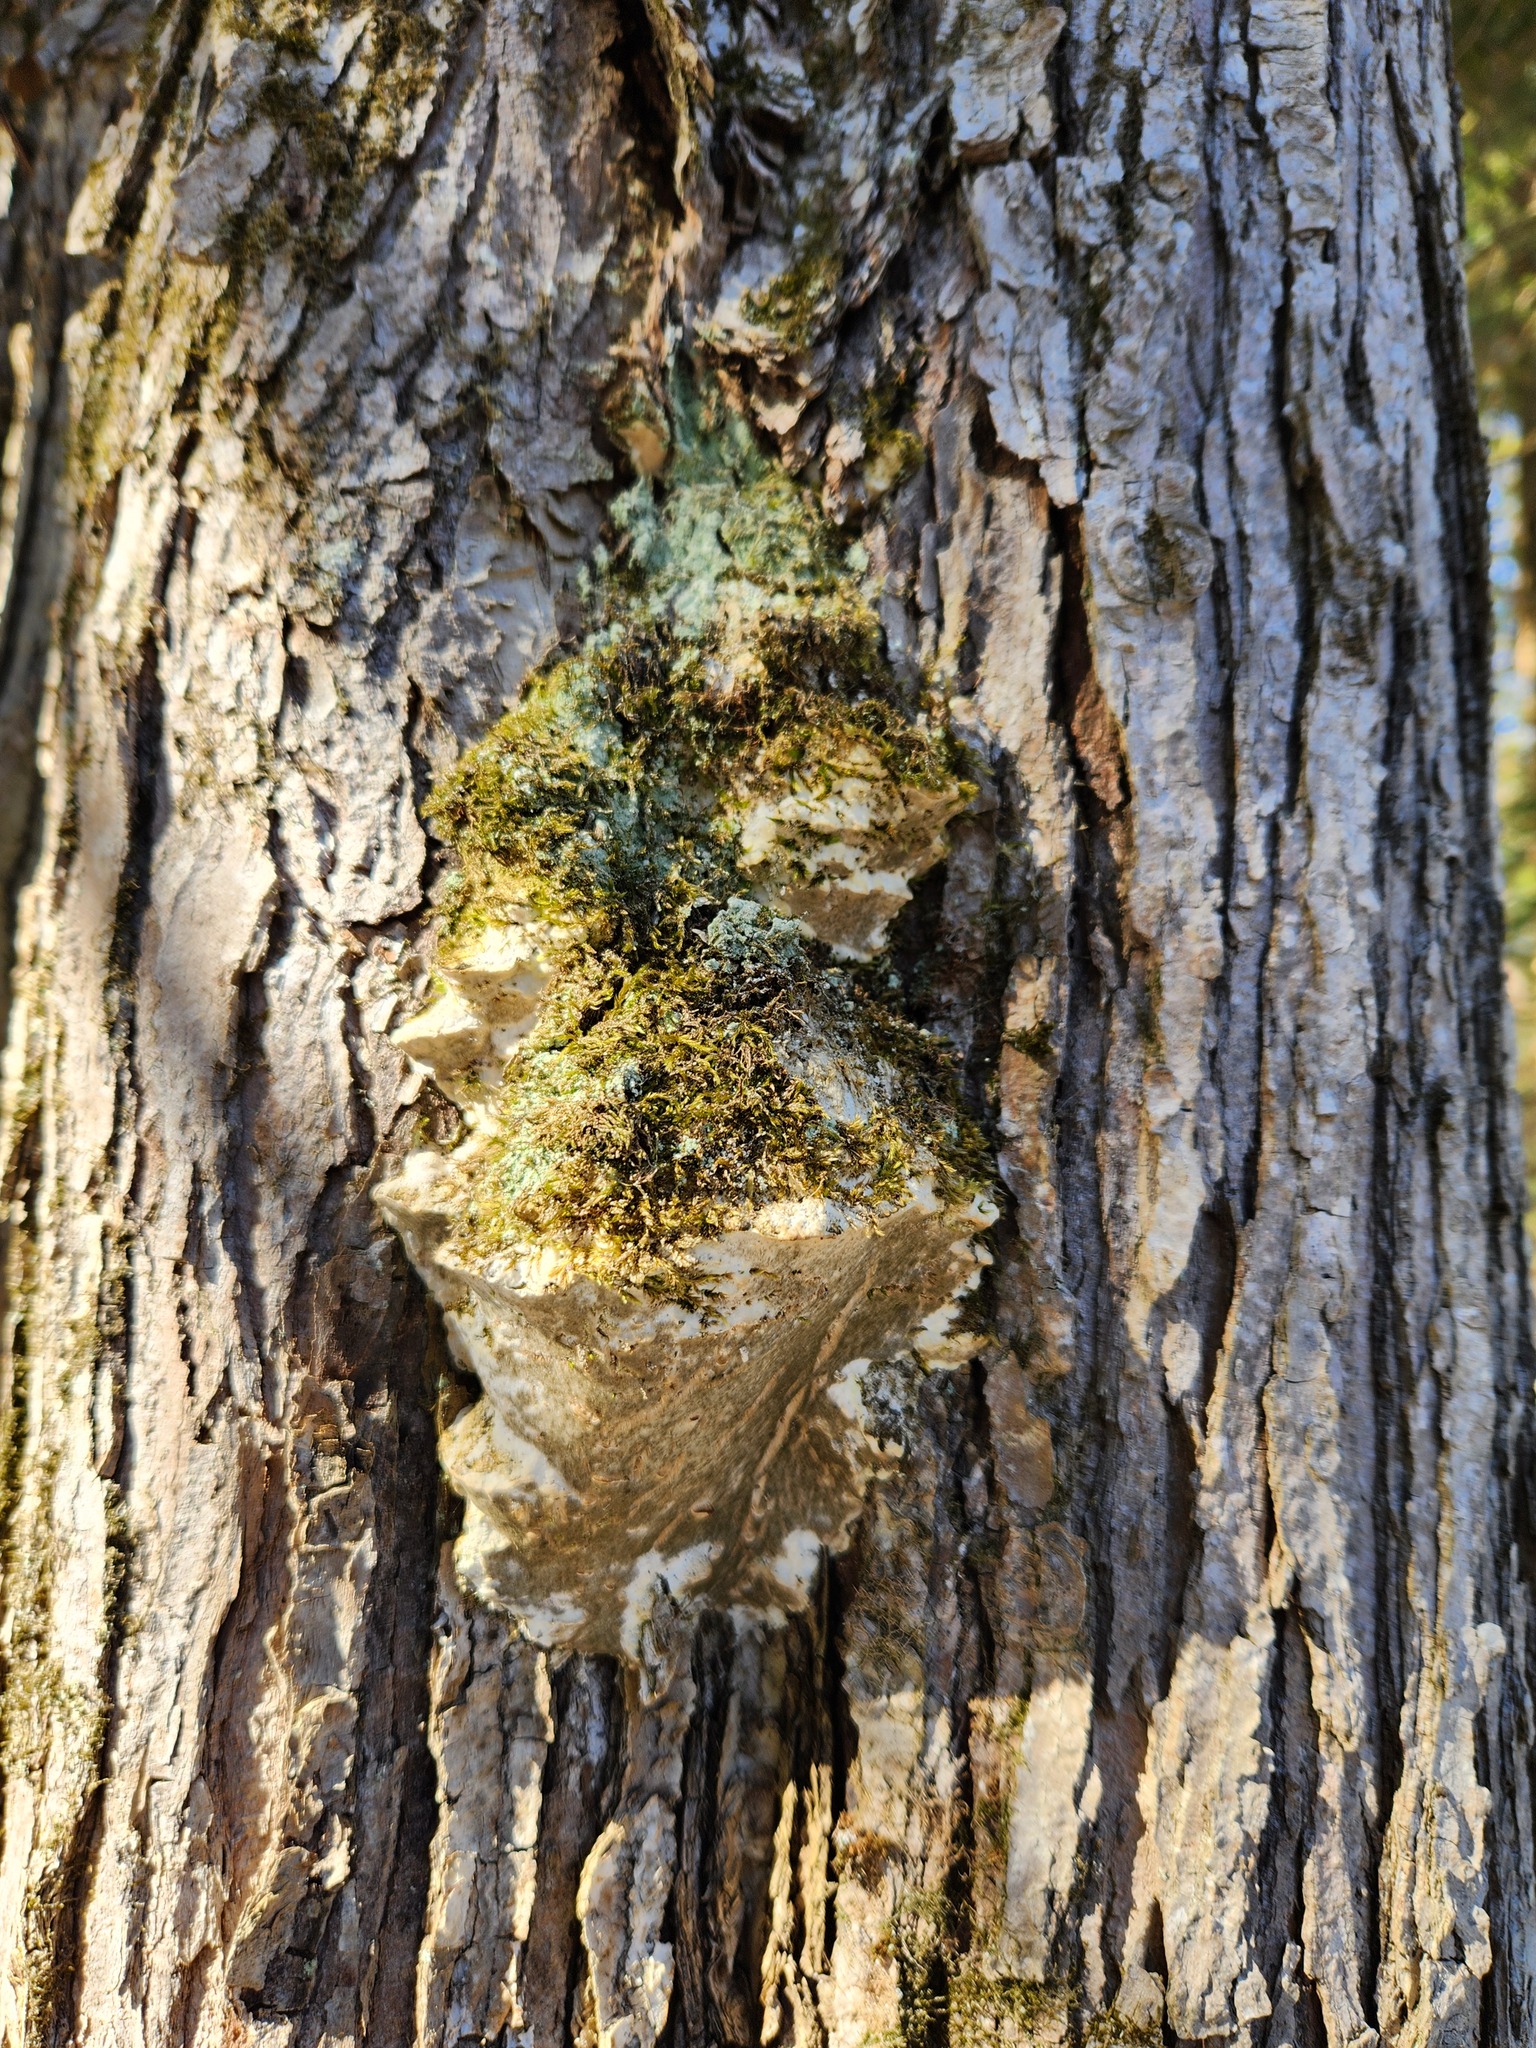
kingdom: Fungi
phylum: Basidiomycota
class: Agaricomycetes
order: Hymenochaetales
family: Oxyporaceae
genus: Oxyporus
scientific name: Oxyporus populinus
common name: Poplar bracket
